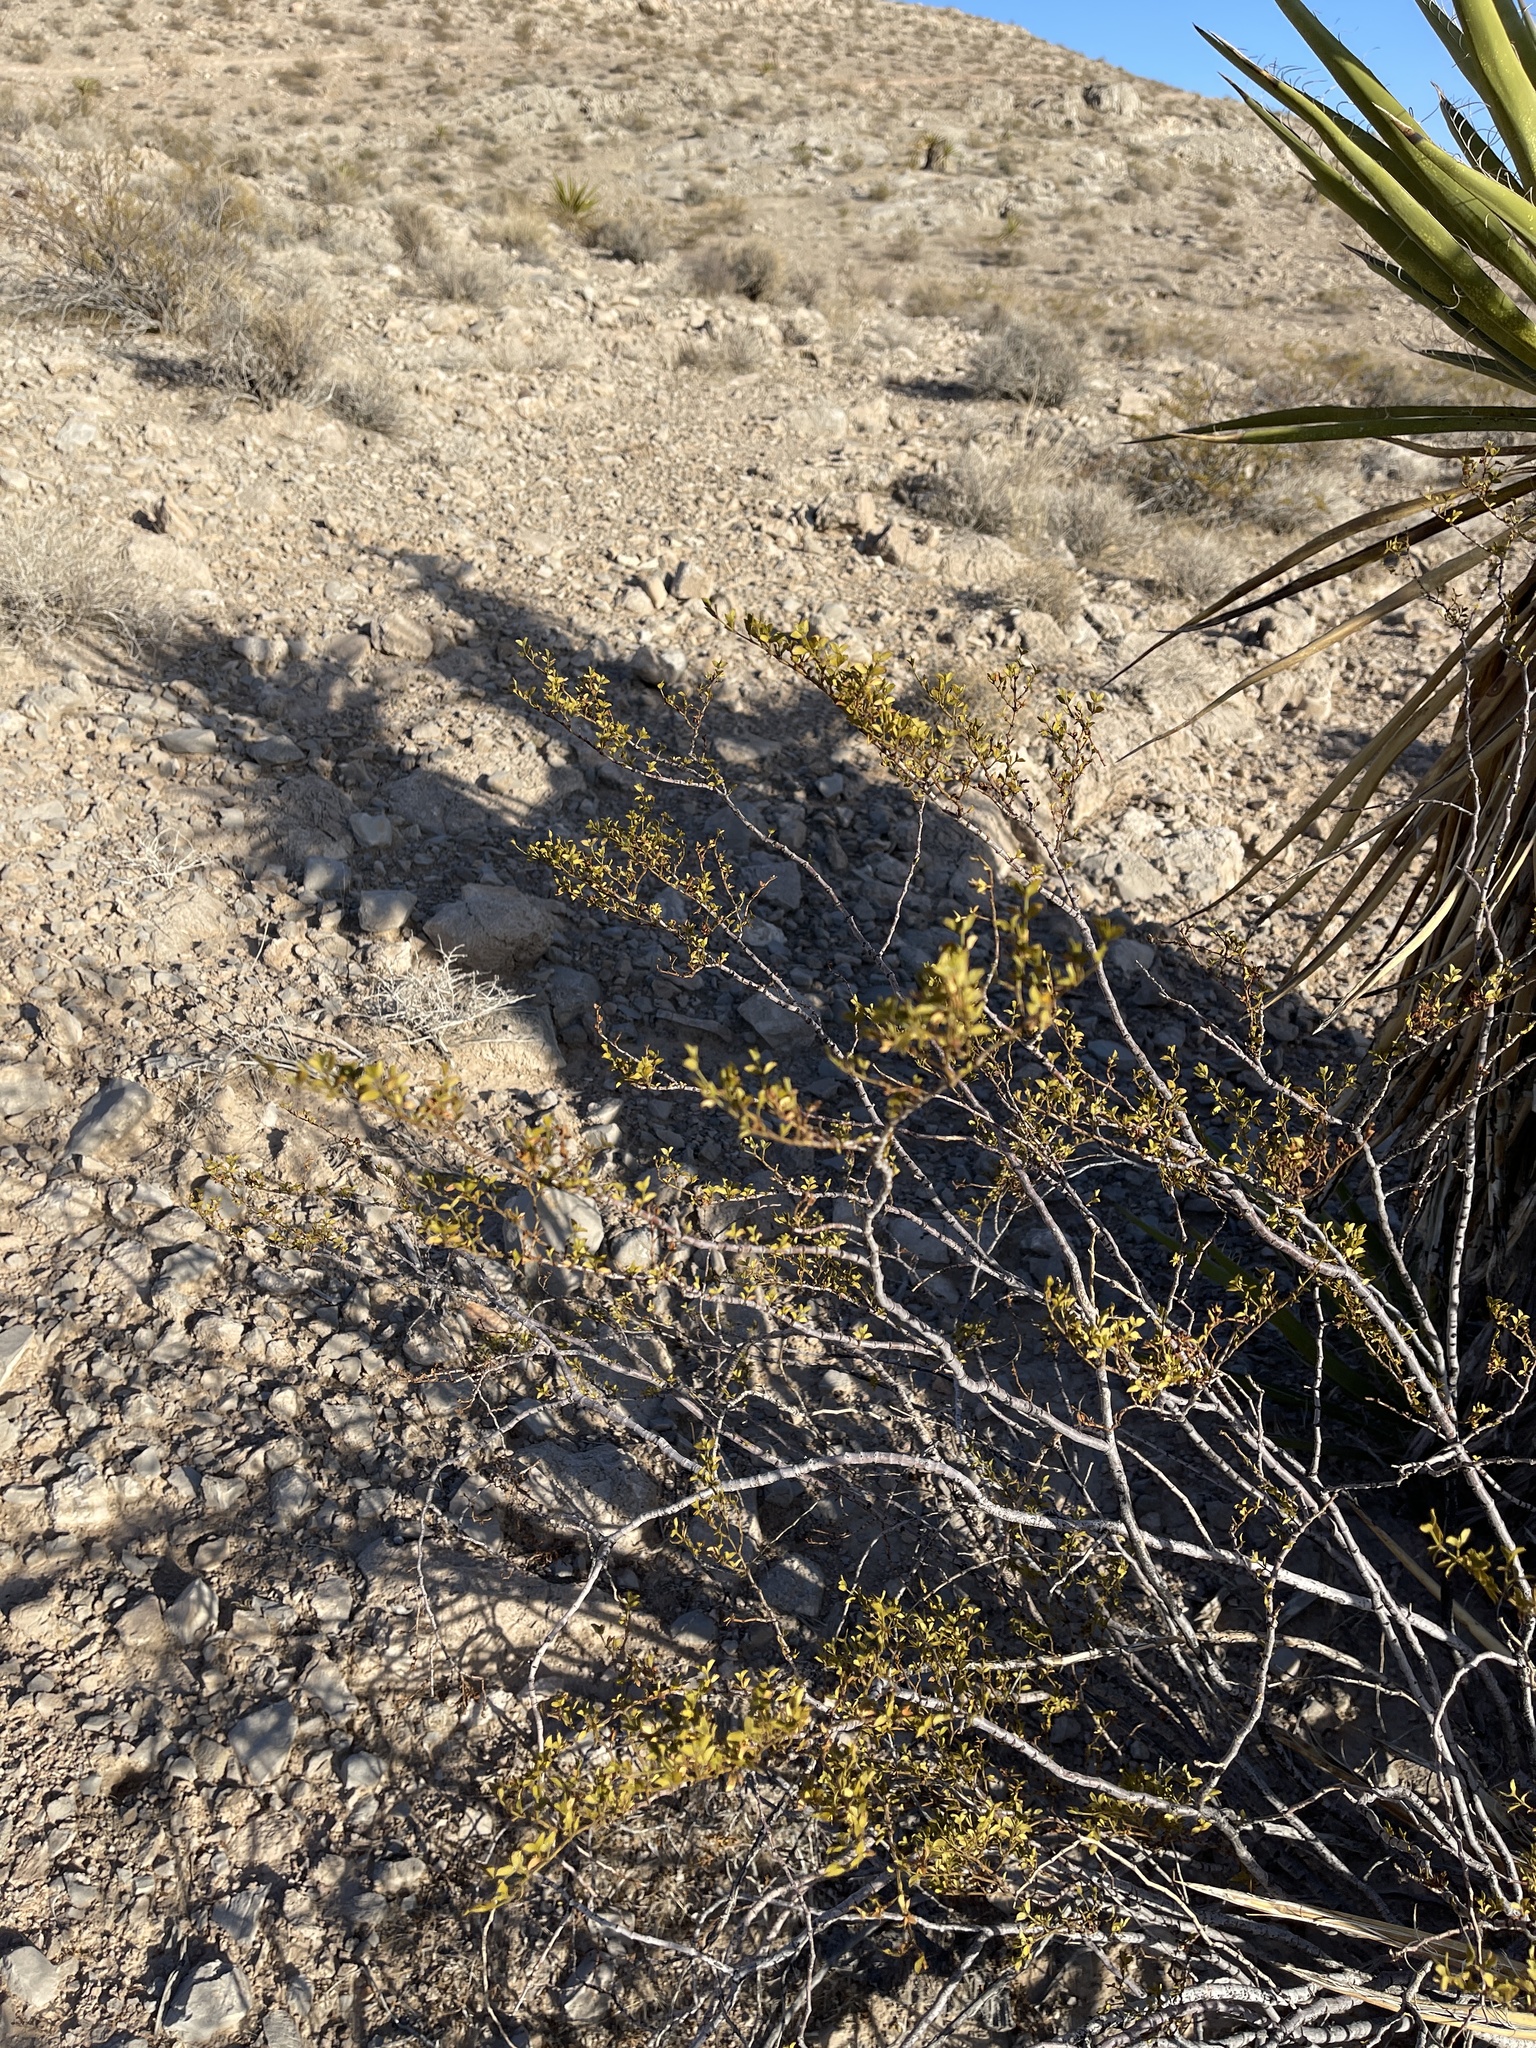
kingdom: Plantae
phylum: Tracheophyta
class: Magnoliopsida
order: Zygophyllales
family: Zygophyllaceae
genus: Larrea
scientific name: Larrea tridentata
